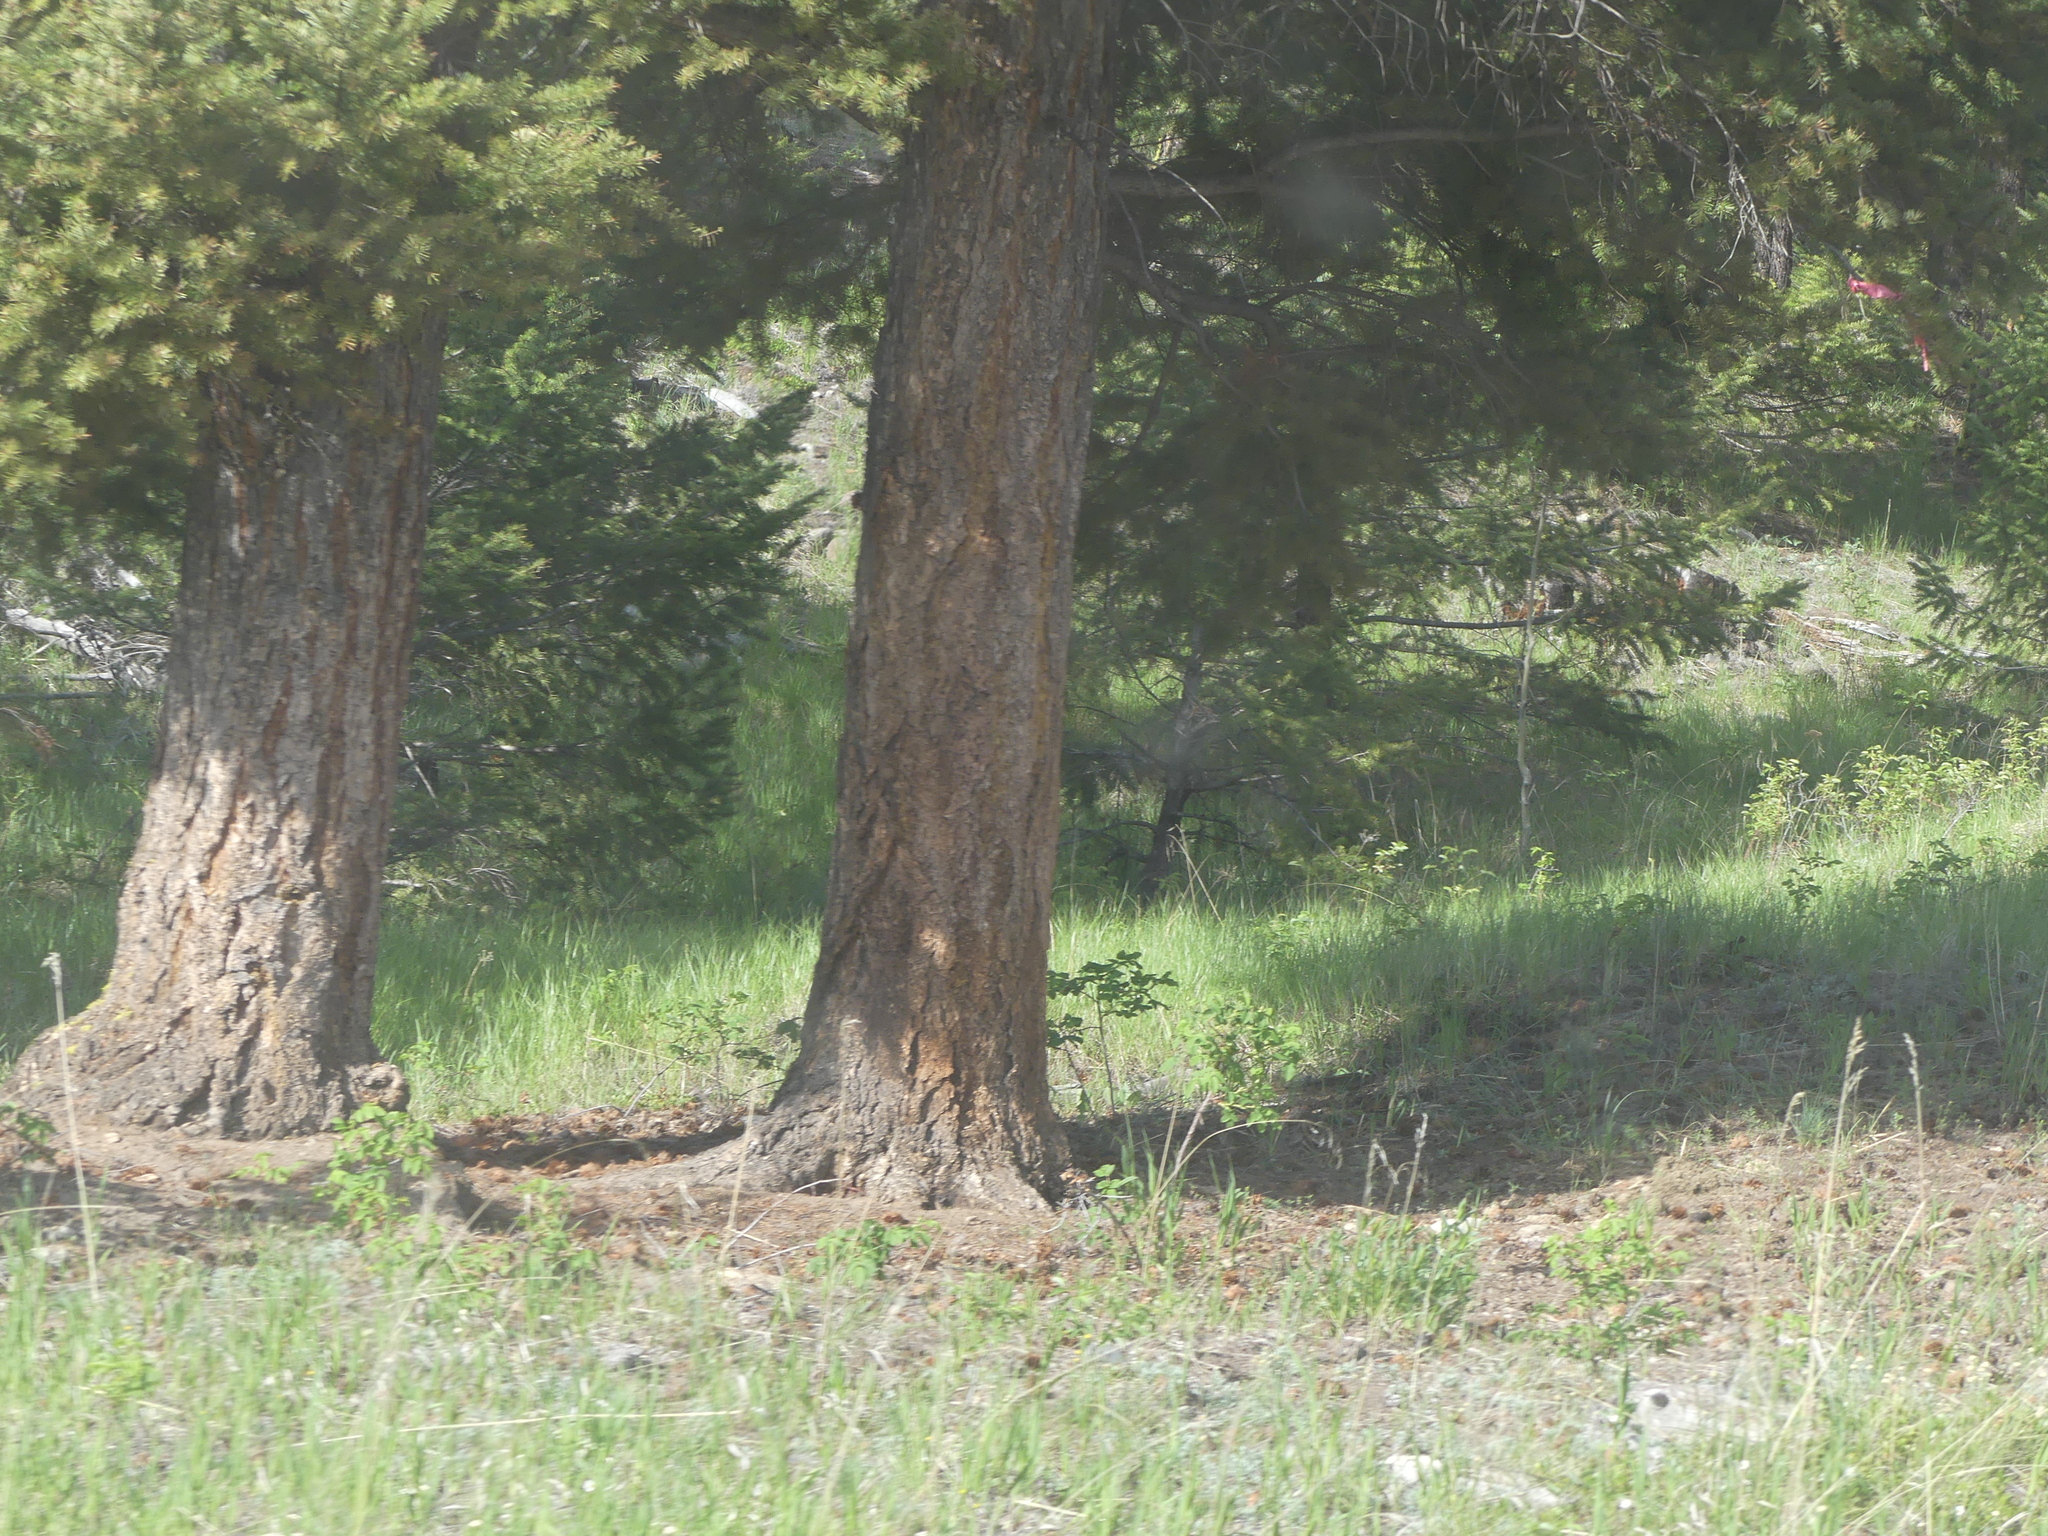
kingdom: Plantae
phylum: Tracheophyta
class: Pinopsida
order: Pinales
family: Pinaceae
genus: Pseudotsuga
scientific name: Pseudotsuga menziesii
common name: Douglas fir
